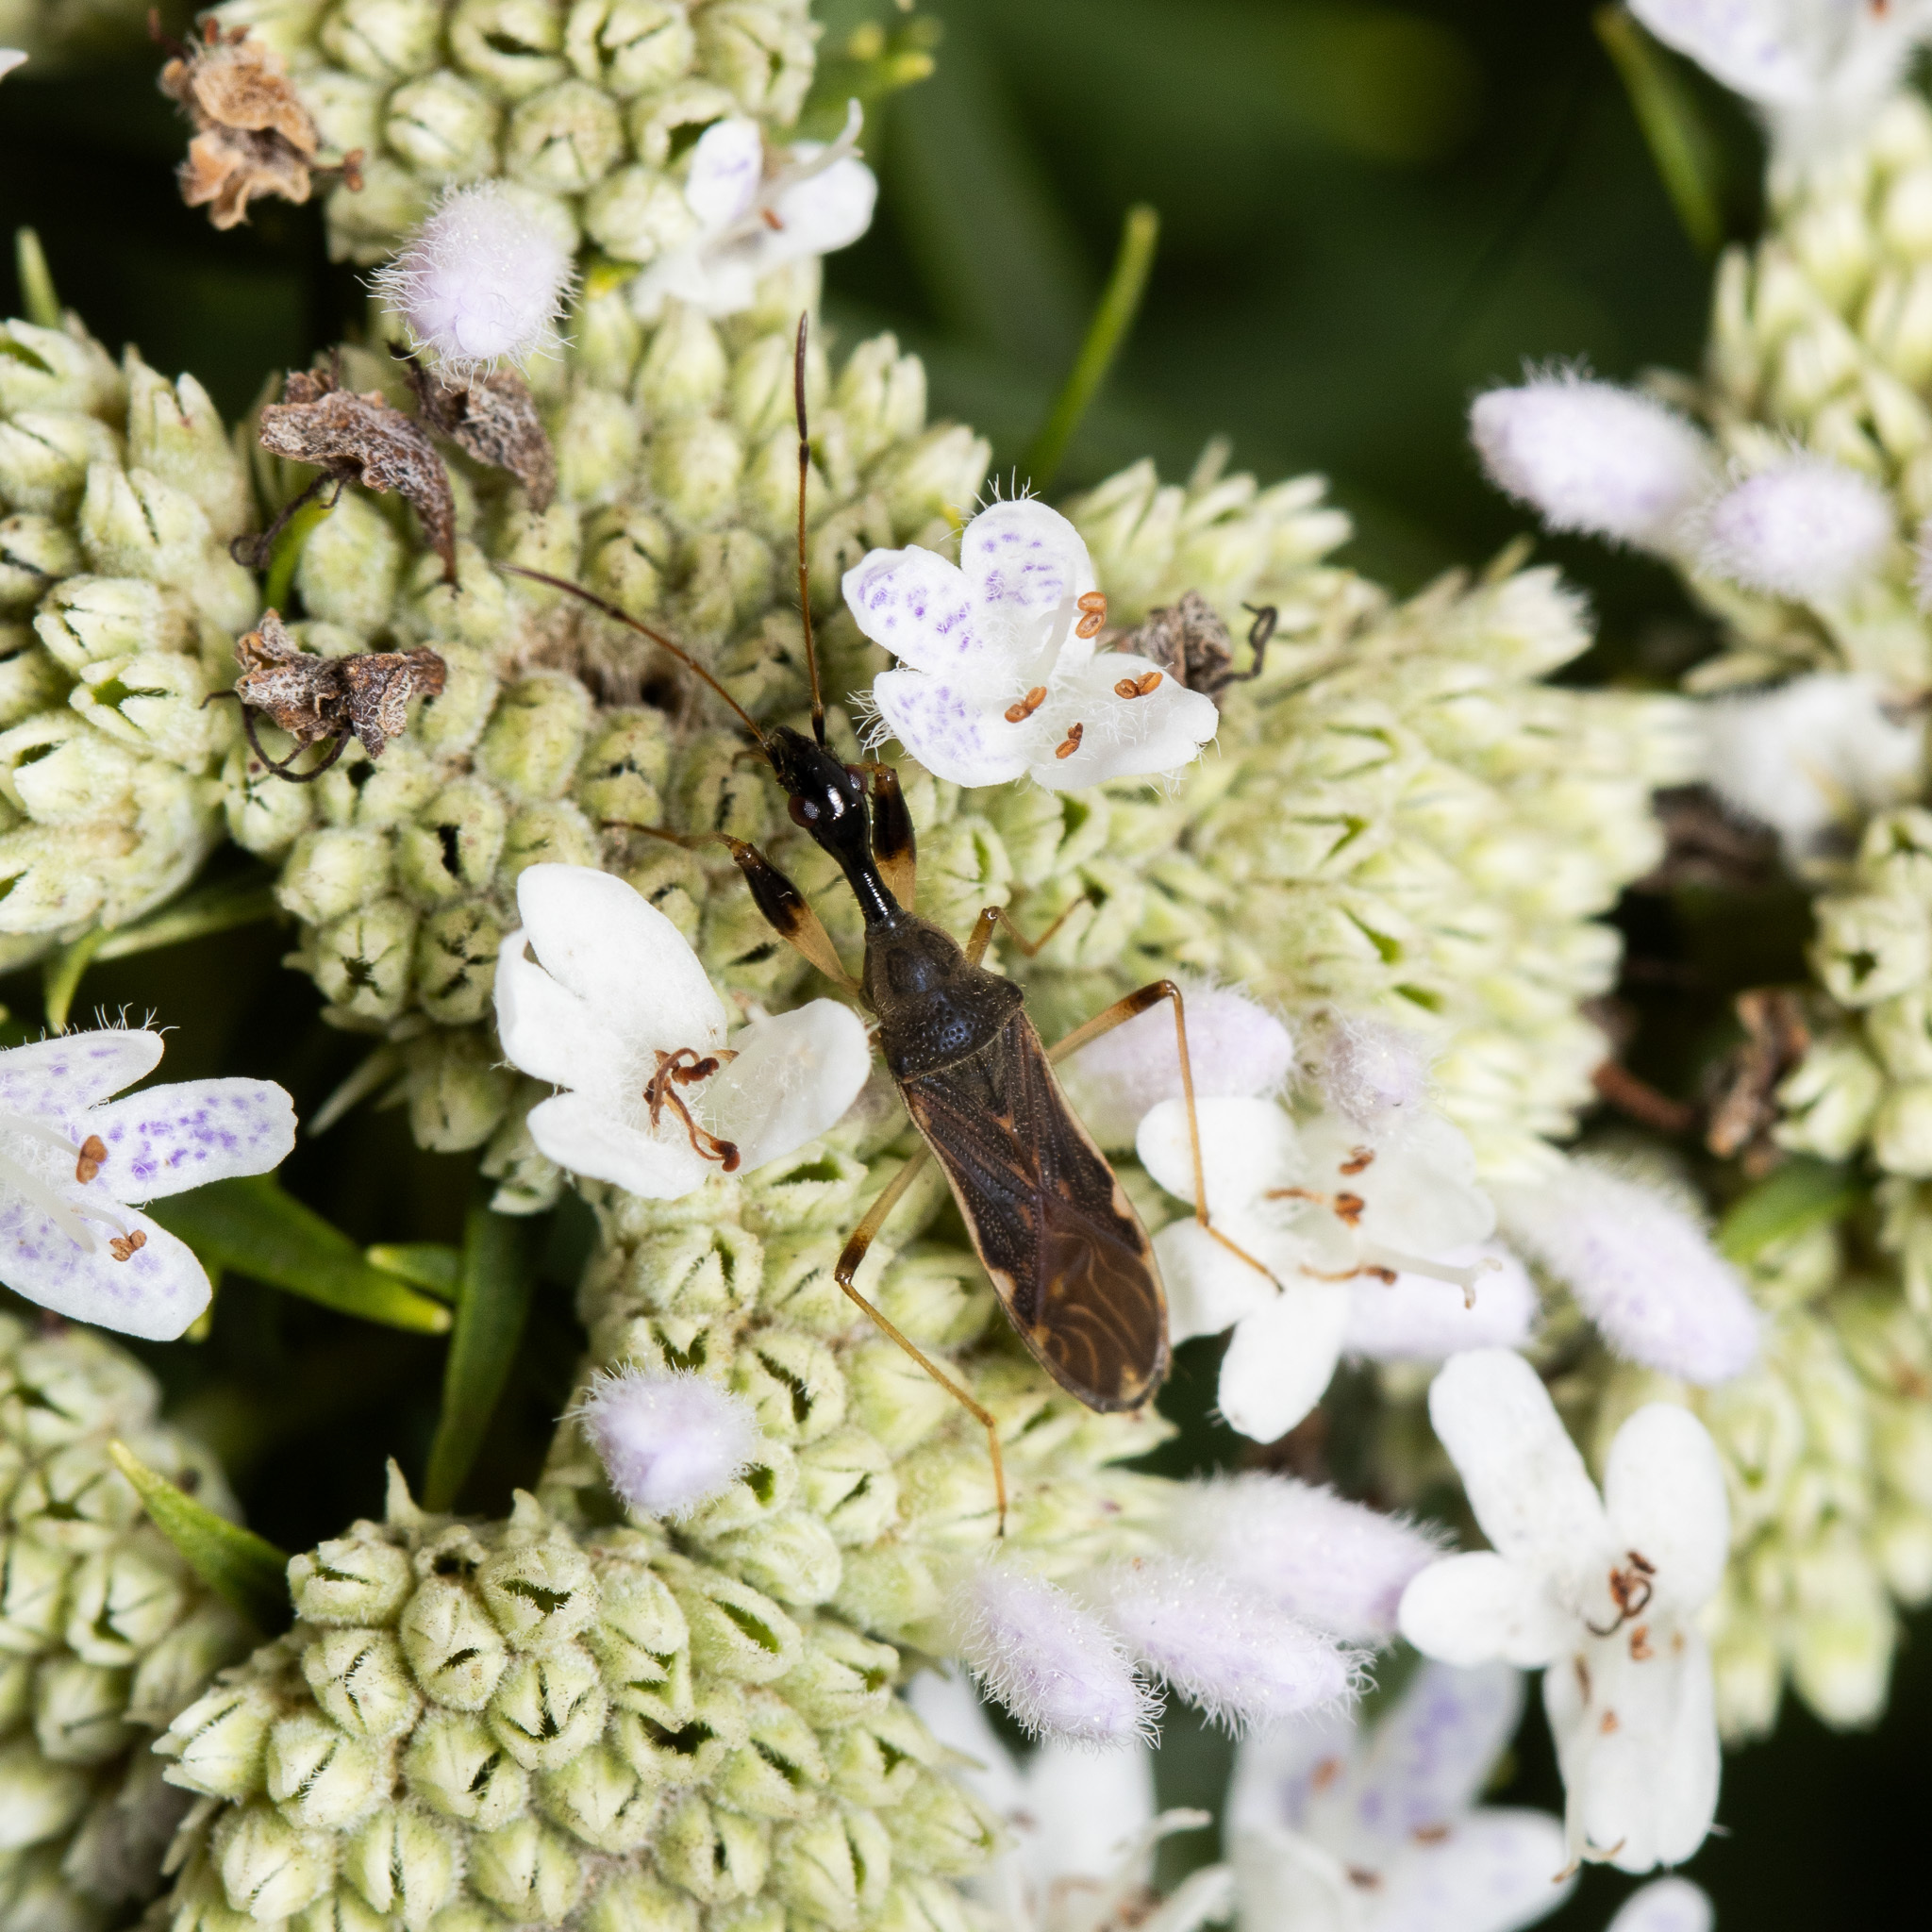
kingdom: Animalia
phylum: Arthropoda
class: Insecta
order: Hemiptera
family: Rhyparochromidae
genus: Myodocha
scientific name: Myodocha serripes
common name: Long-necked seed bug
